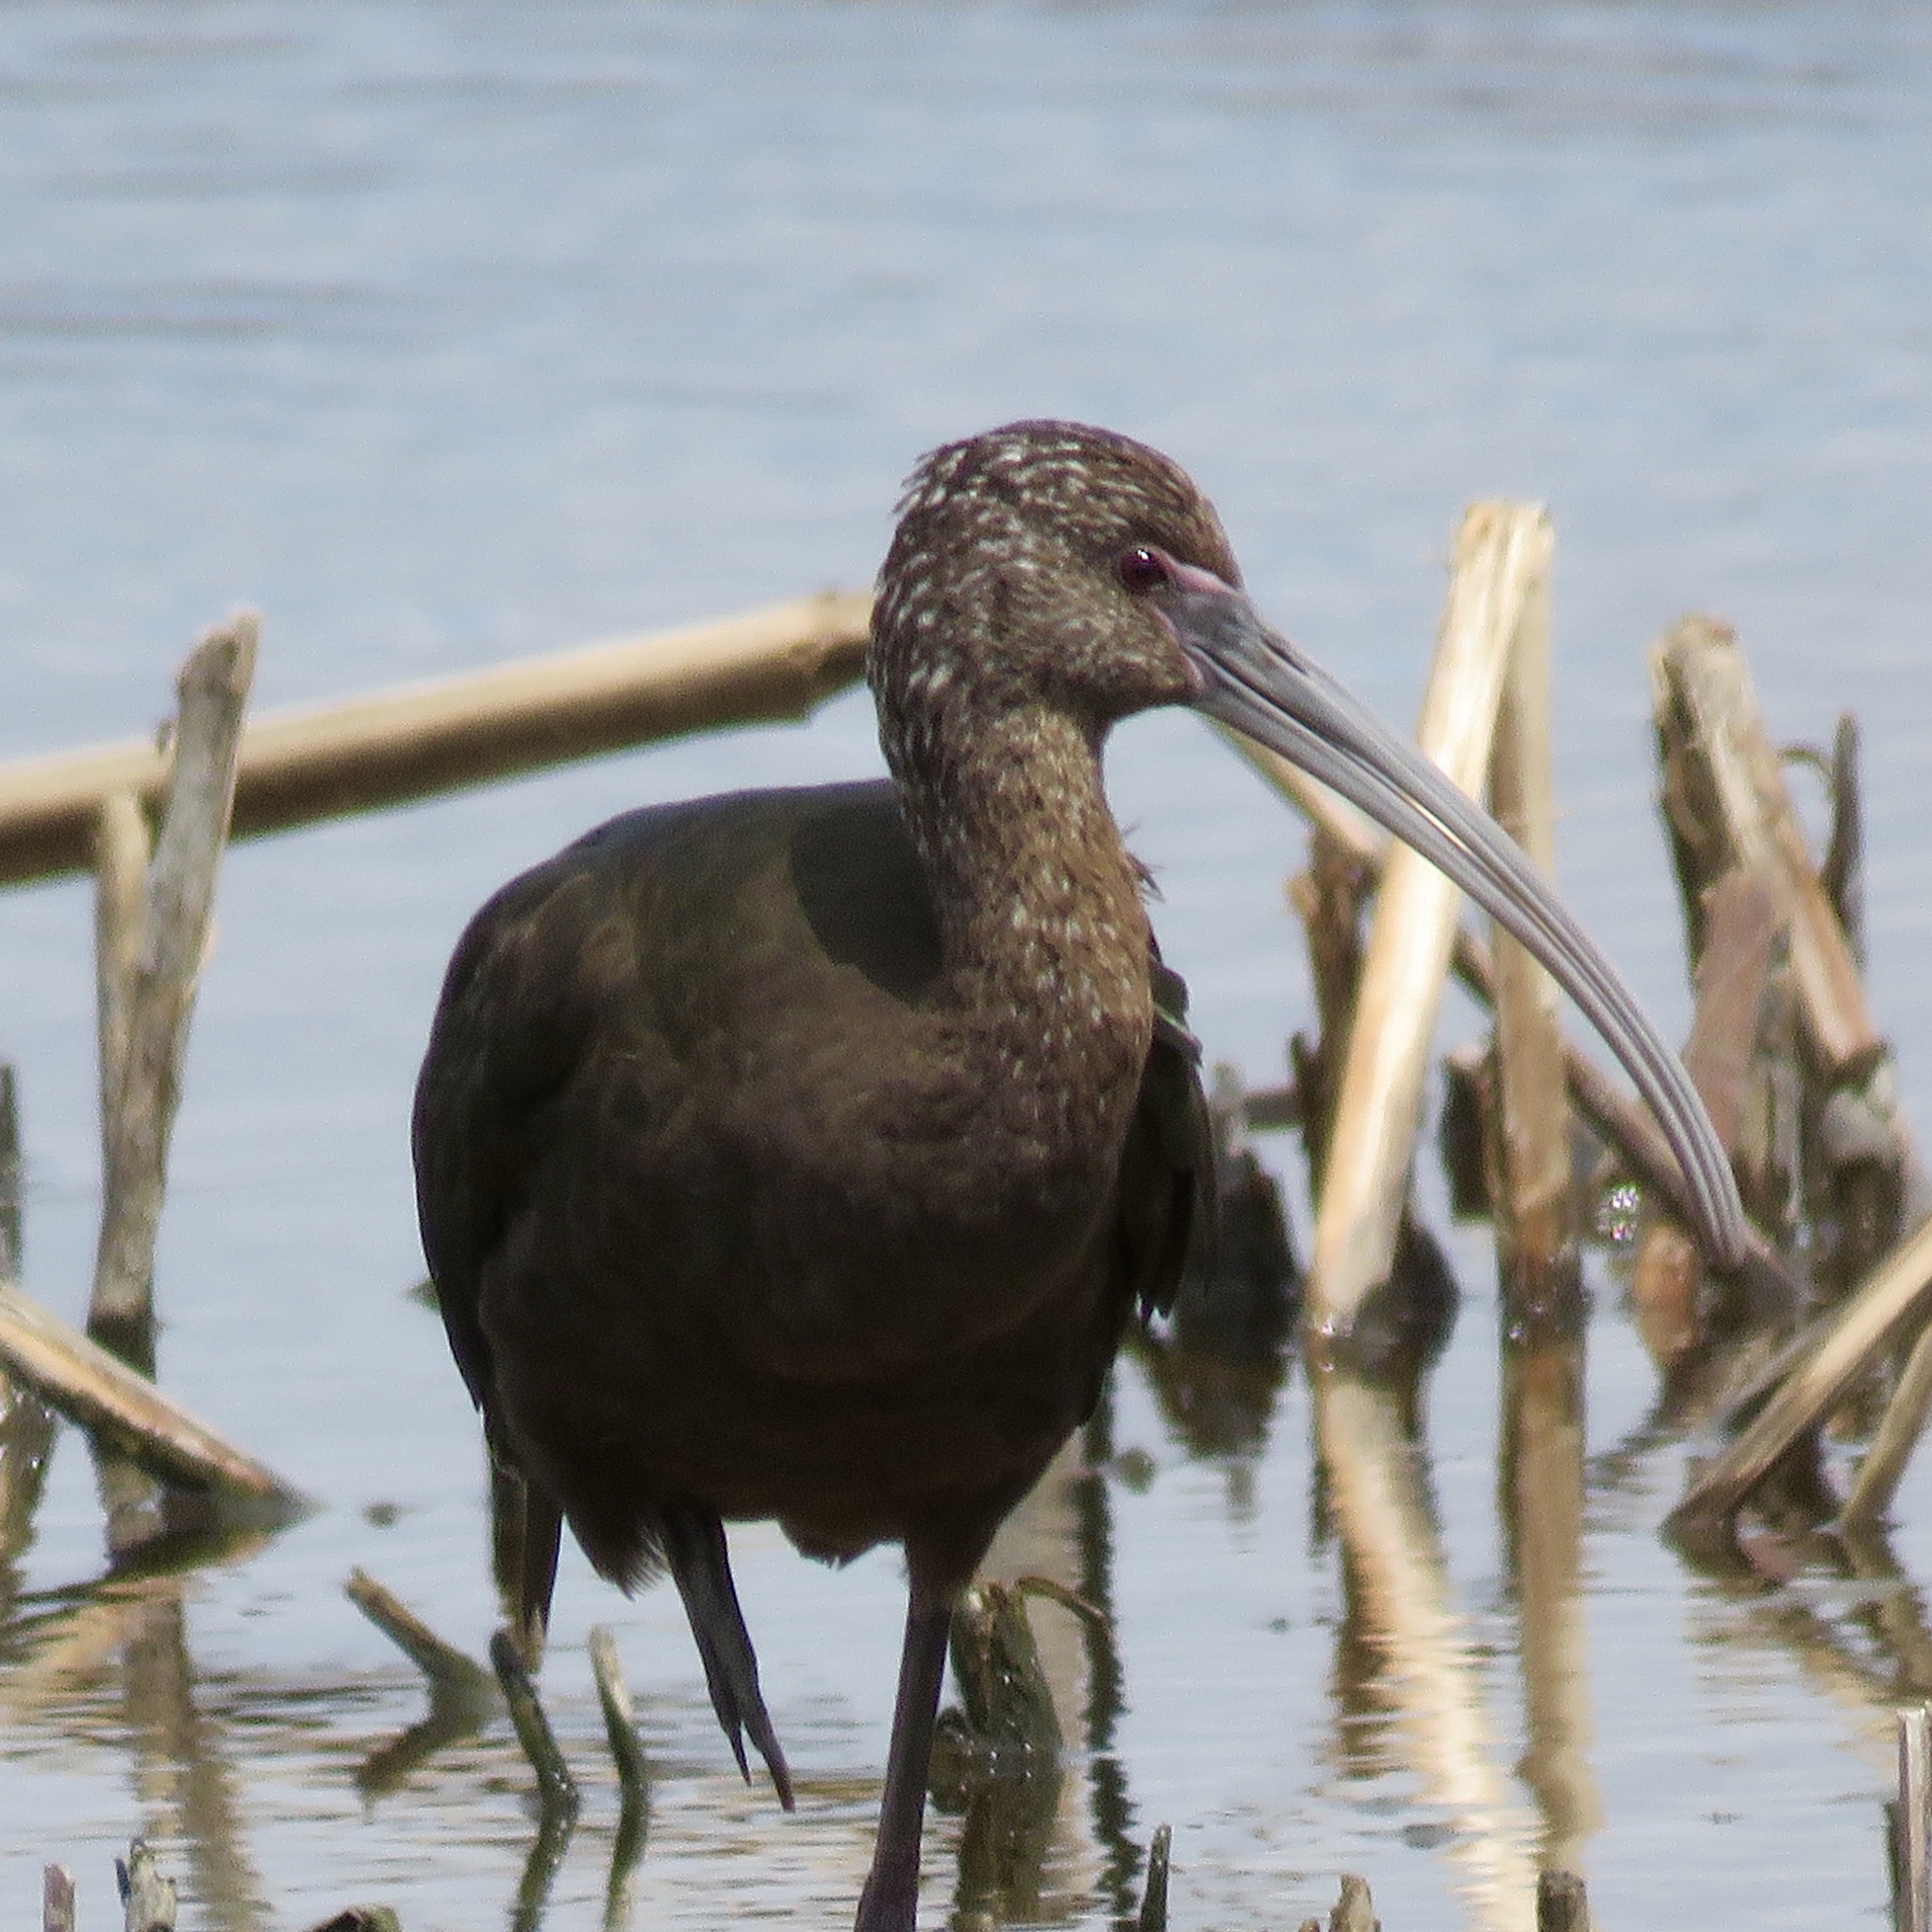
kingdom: Animalia
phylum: Chordata
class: Aves
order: Pelecaniformes
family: Threskiornithidae
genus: Plegadis
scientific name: Plegadis chihi
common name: White-faced ibis
